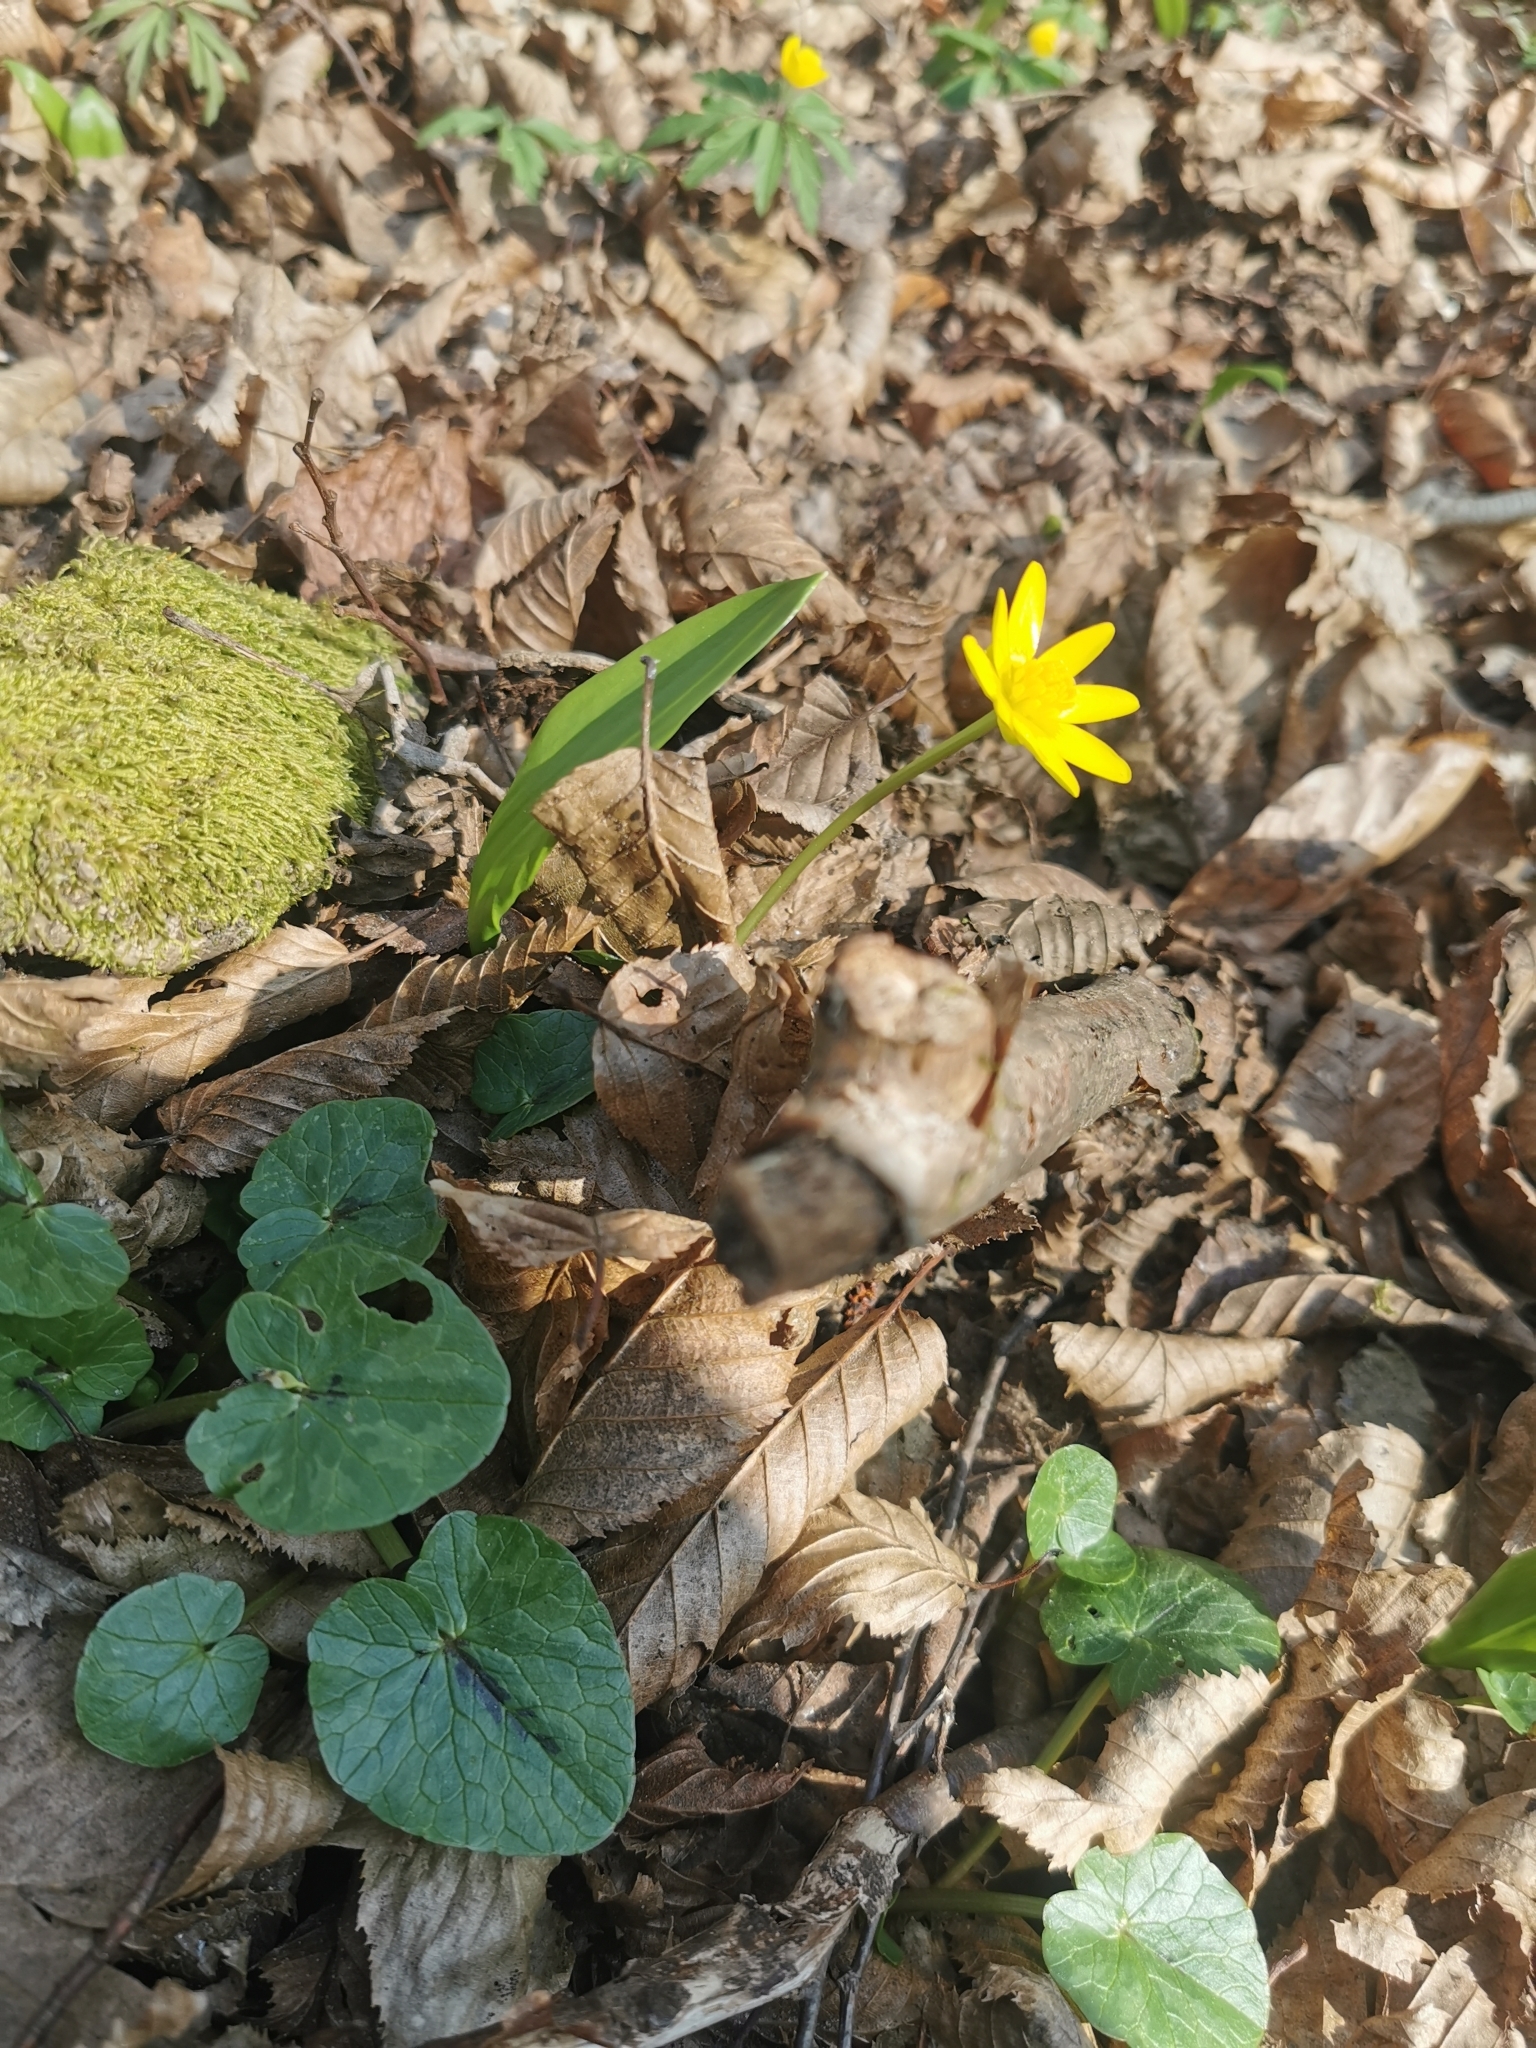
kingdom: Plantae
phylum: Tracheophyta
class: Magnoliopsida
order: Ranunculales
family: Ranunculaceae
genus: Ficaria
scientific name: Ficaria verna
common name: Lesser celandine
